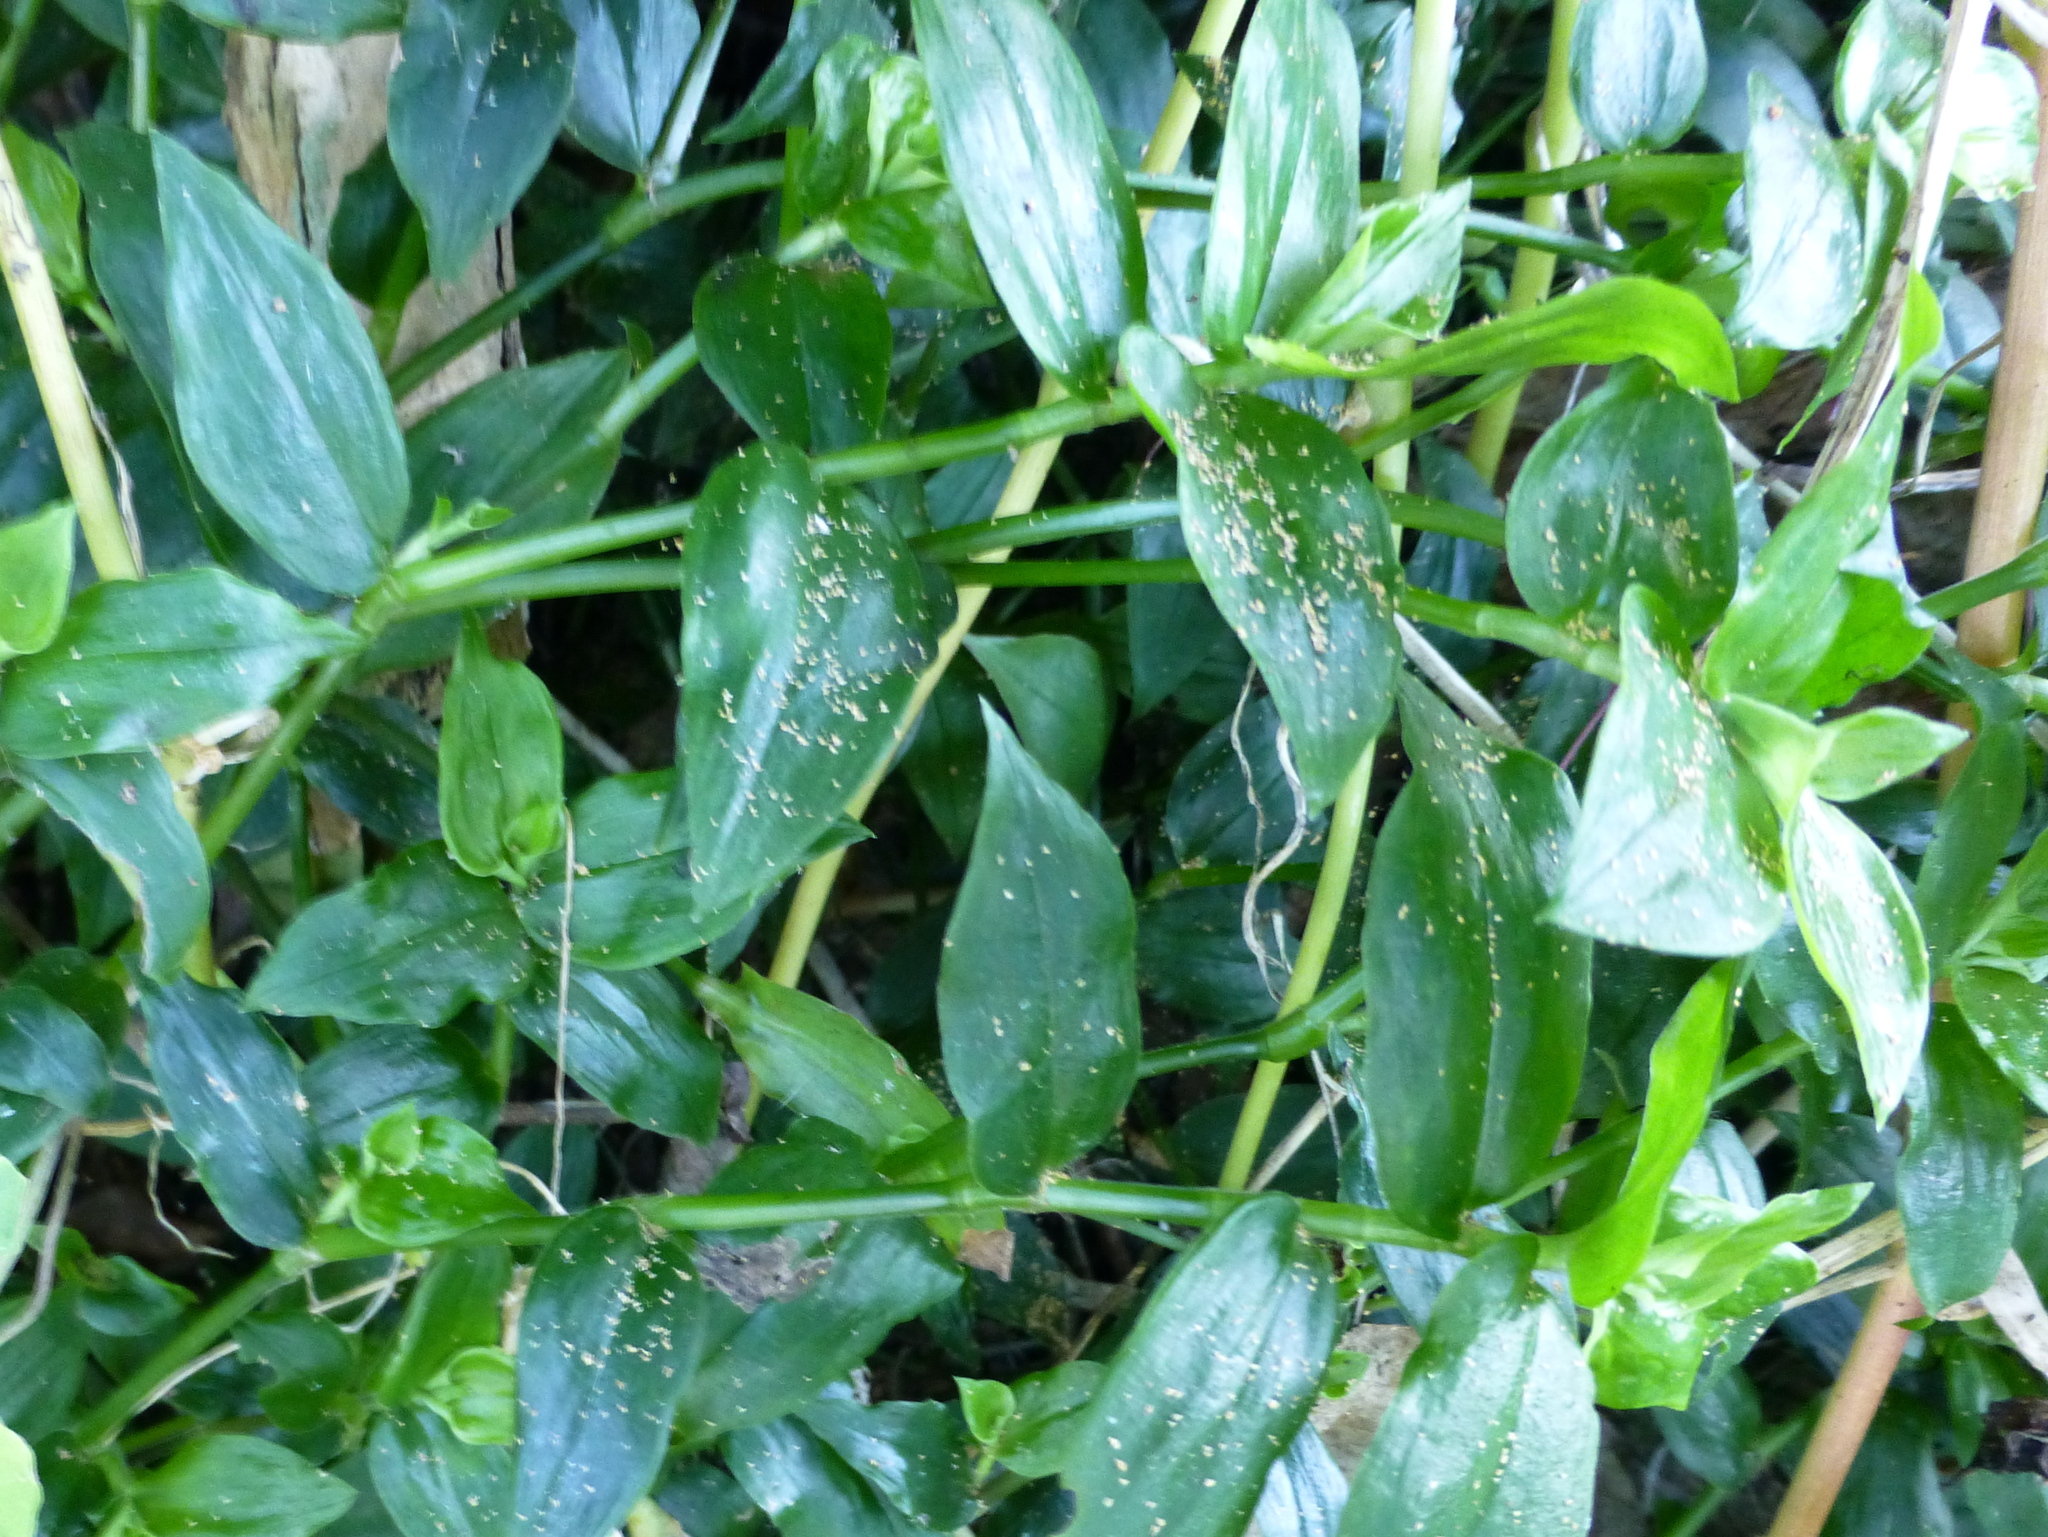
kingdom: Plantae
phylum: Tracheophyta
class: Liliopsida
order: Commelinales
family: Commelinaceae
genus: Tradescantia
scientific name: Tradescantia fluminensis
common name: Wandering-jew
